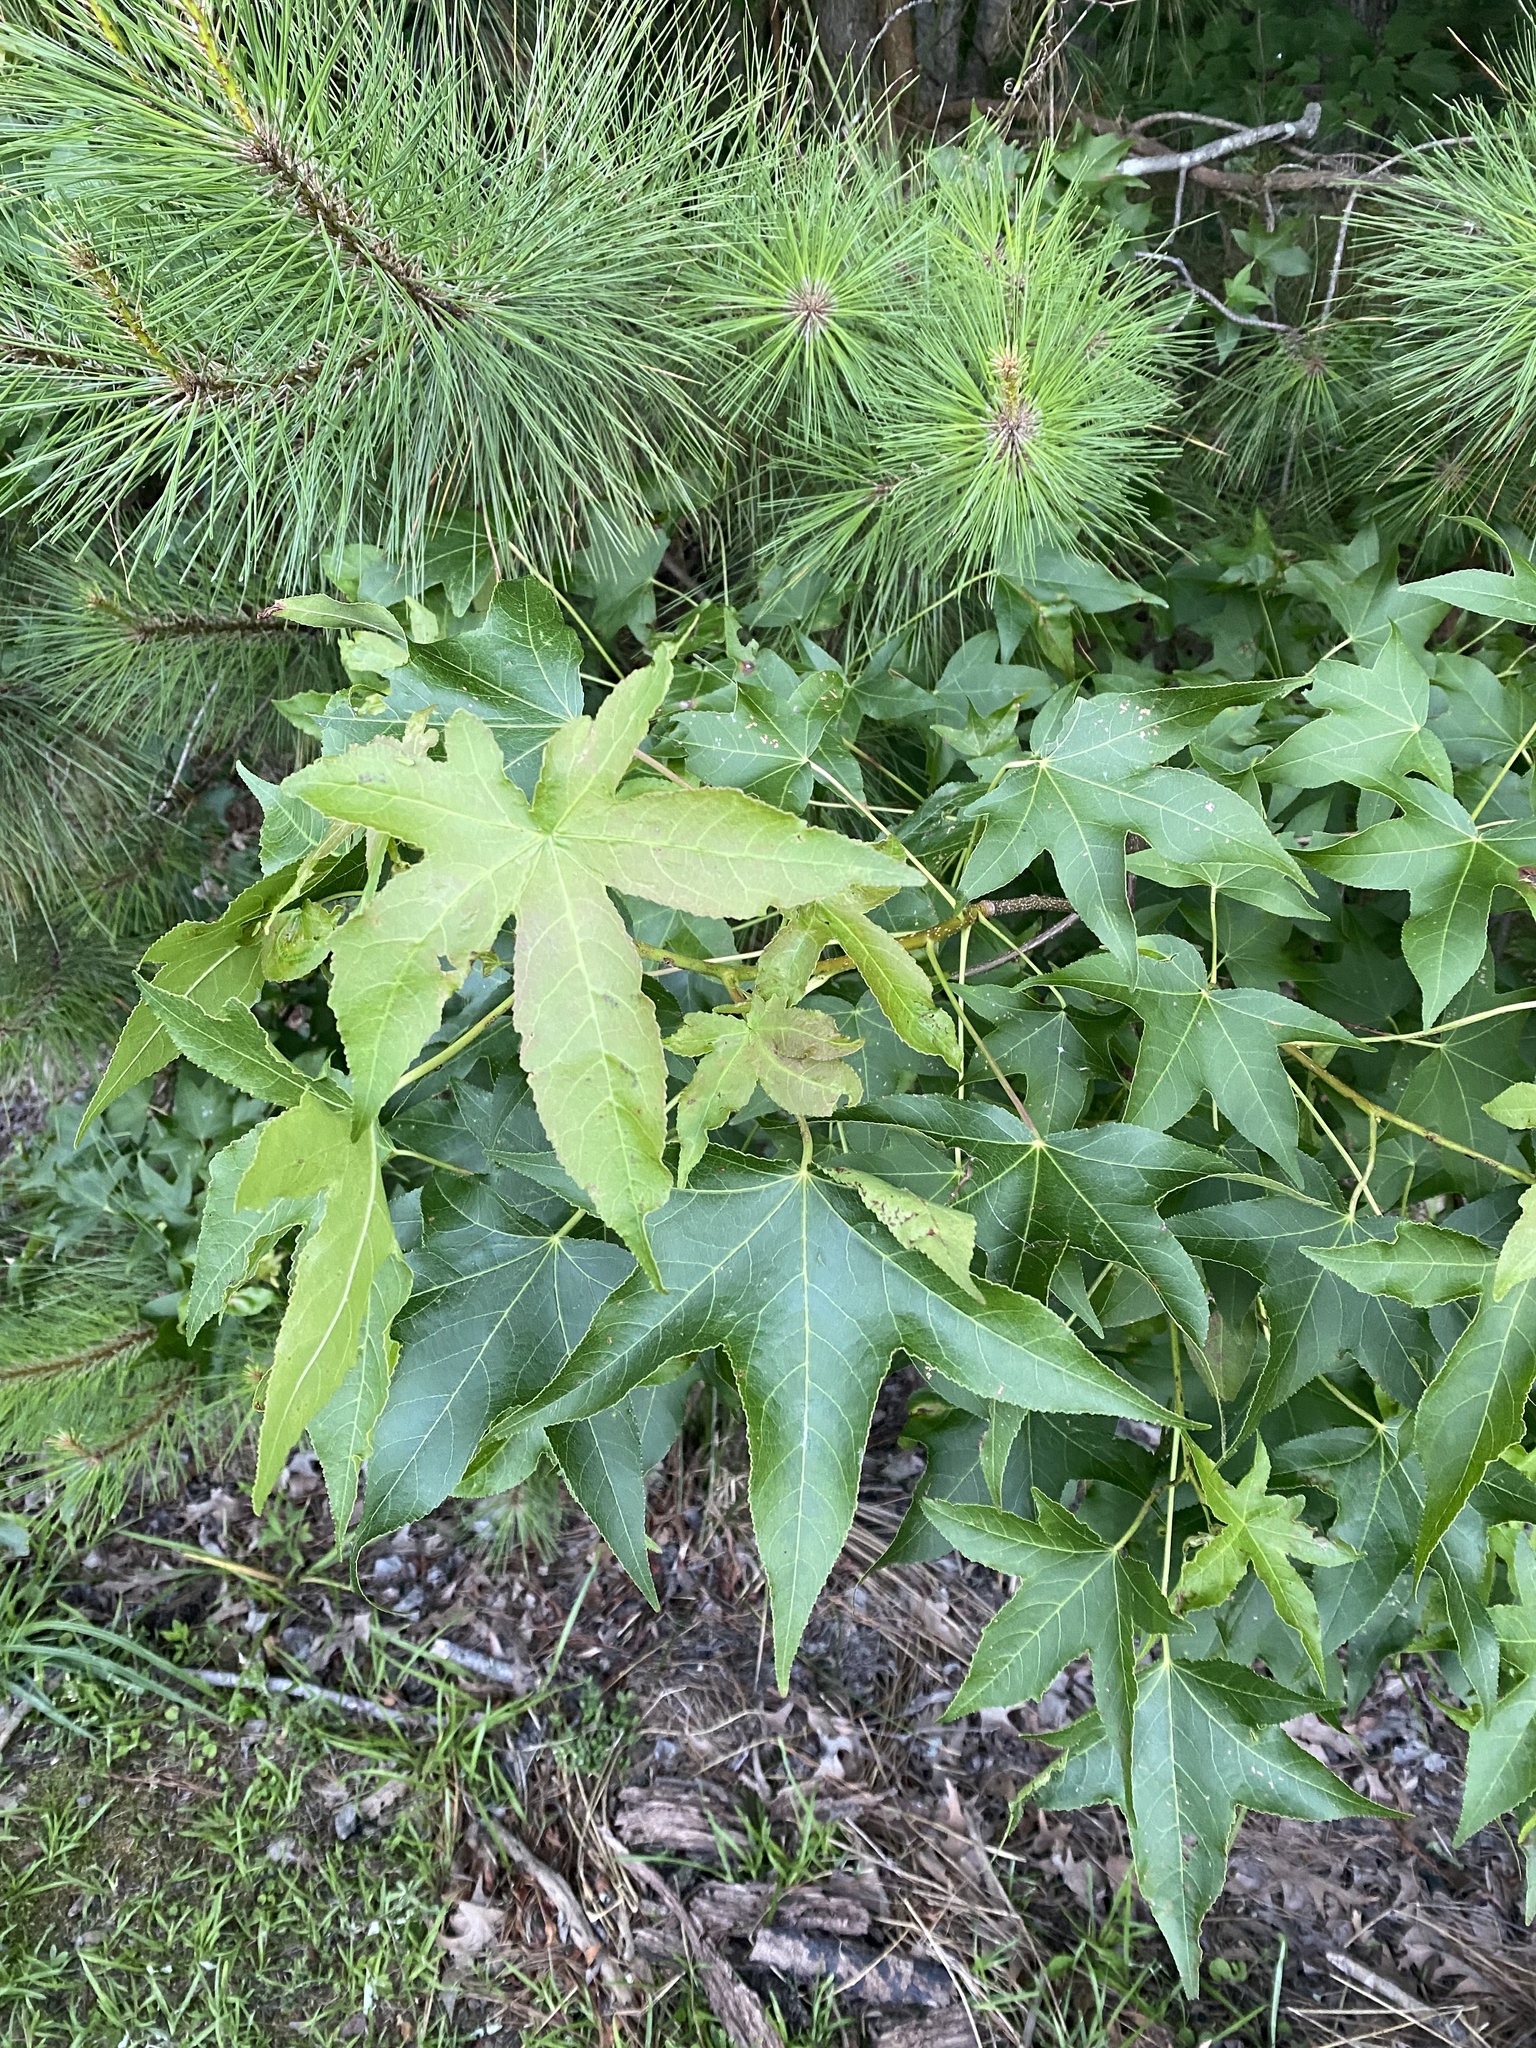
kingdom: Plantae
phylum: Tracheophyta
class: Magnoliopsida
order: Saxifragales
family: Altingiaceae
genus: Liquidambar
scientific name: Liquidambar styraciflua
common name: Sweet gum
